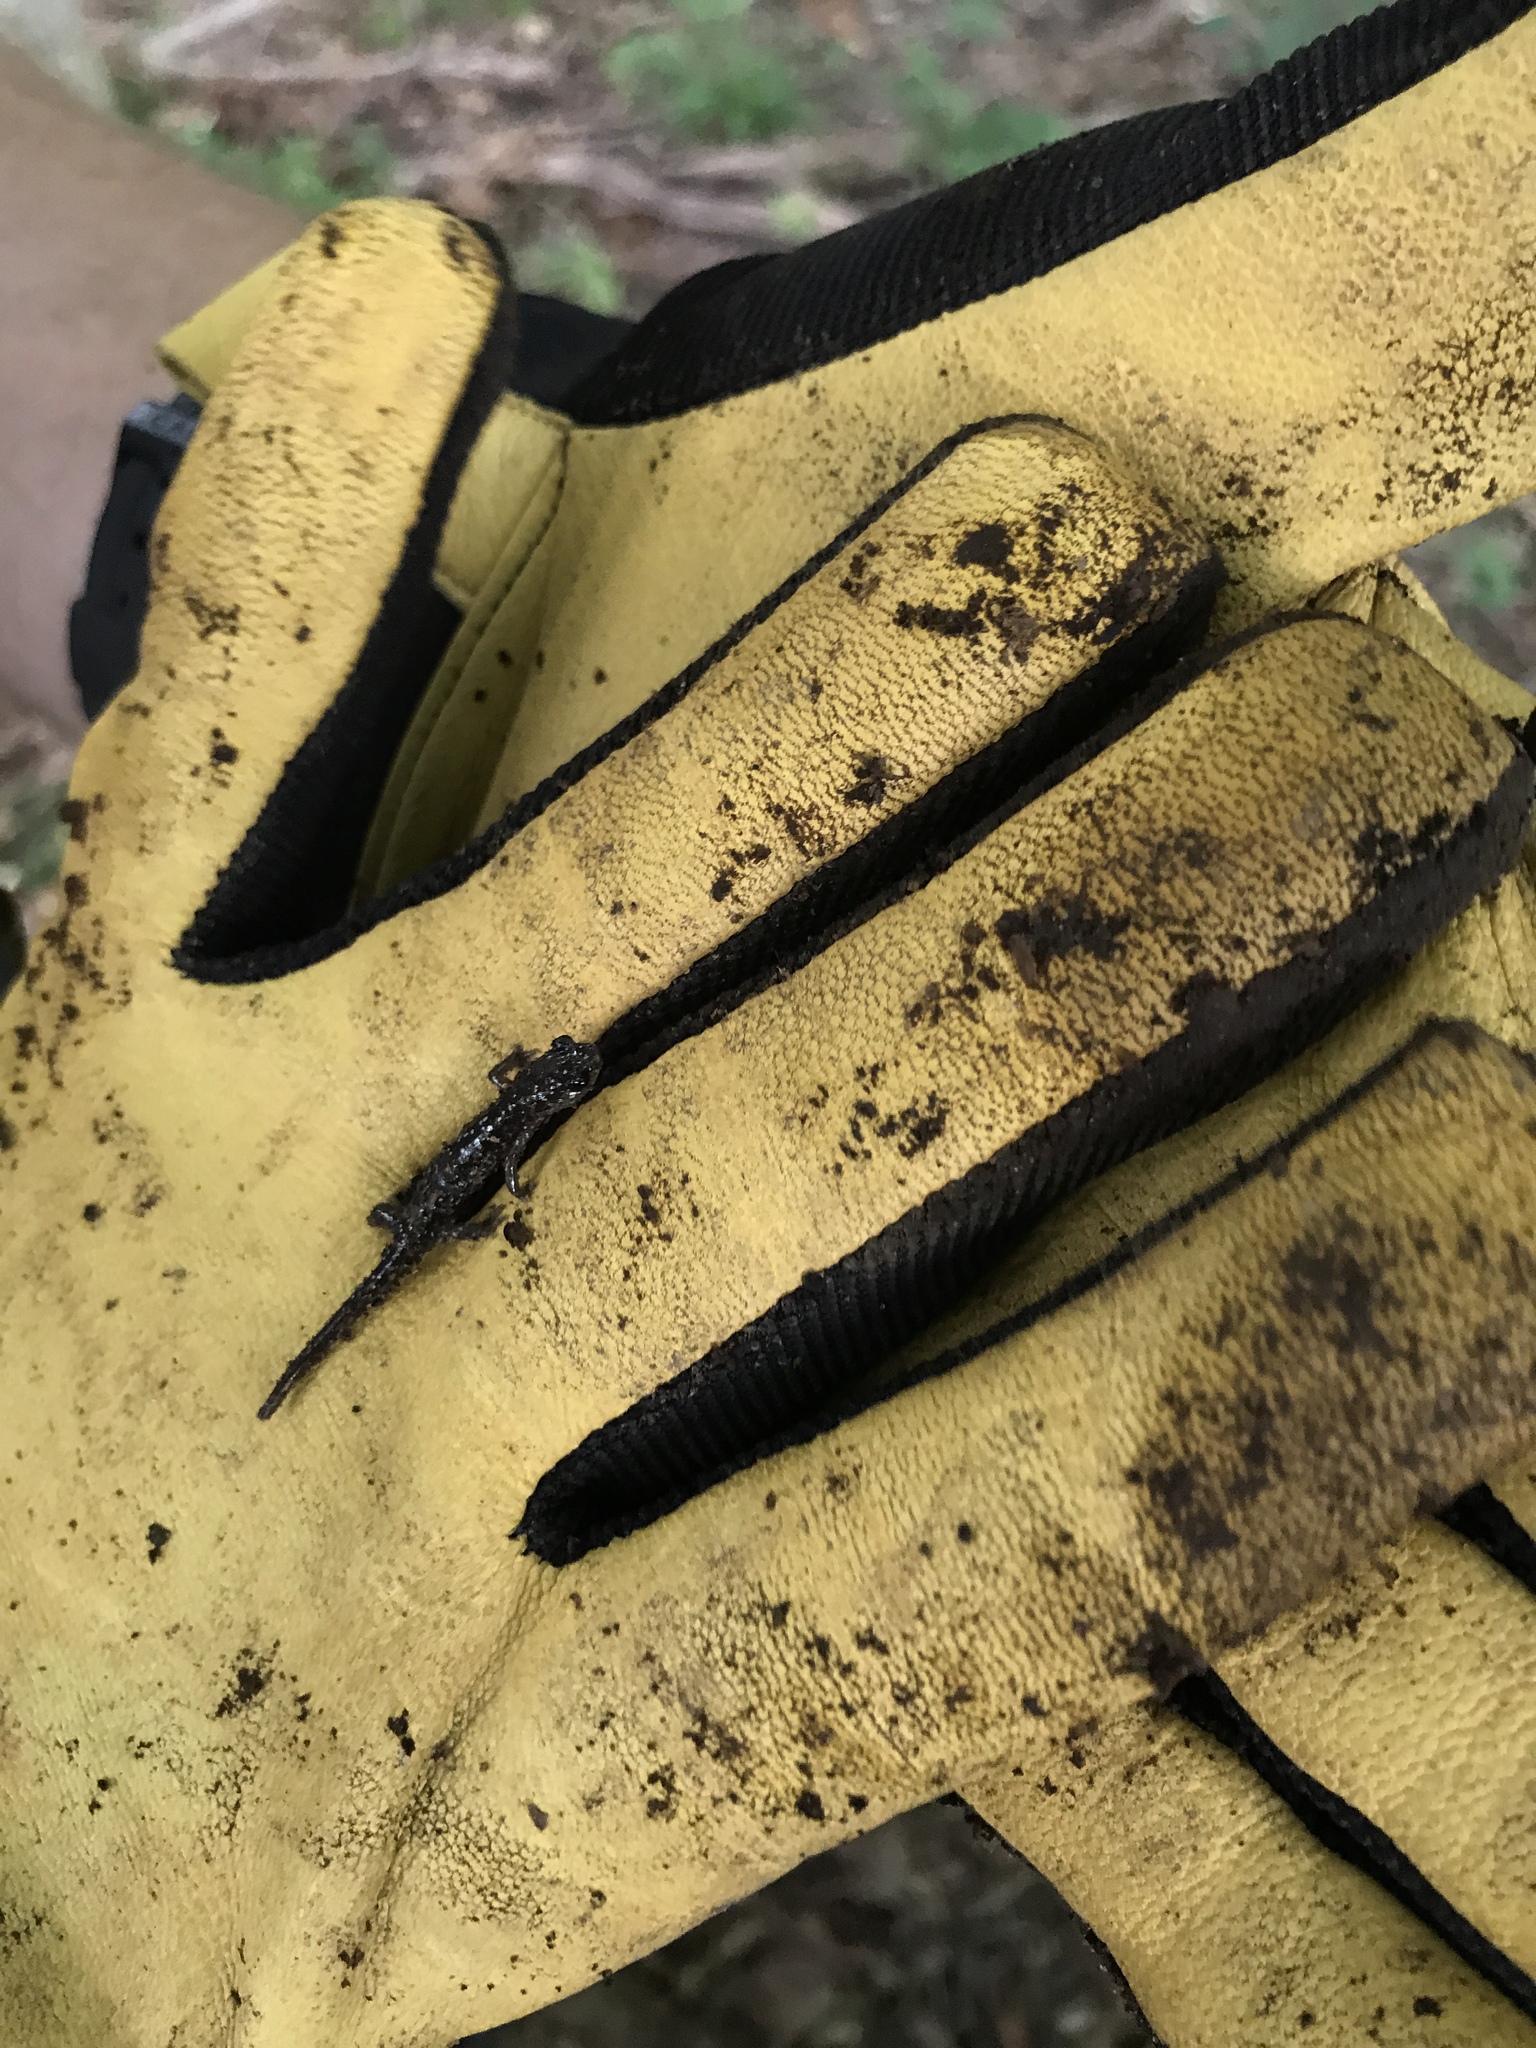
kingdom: Animalia
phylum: Chordata
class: Amphibia
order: Caudata
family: Plethodontidae
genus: Plethodon
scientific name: Plethodon glutinosus
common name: Northern slimy salamander
